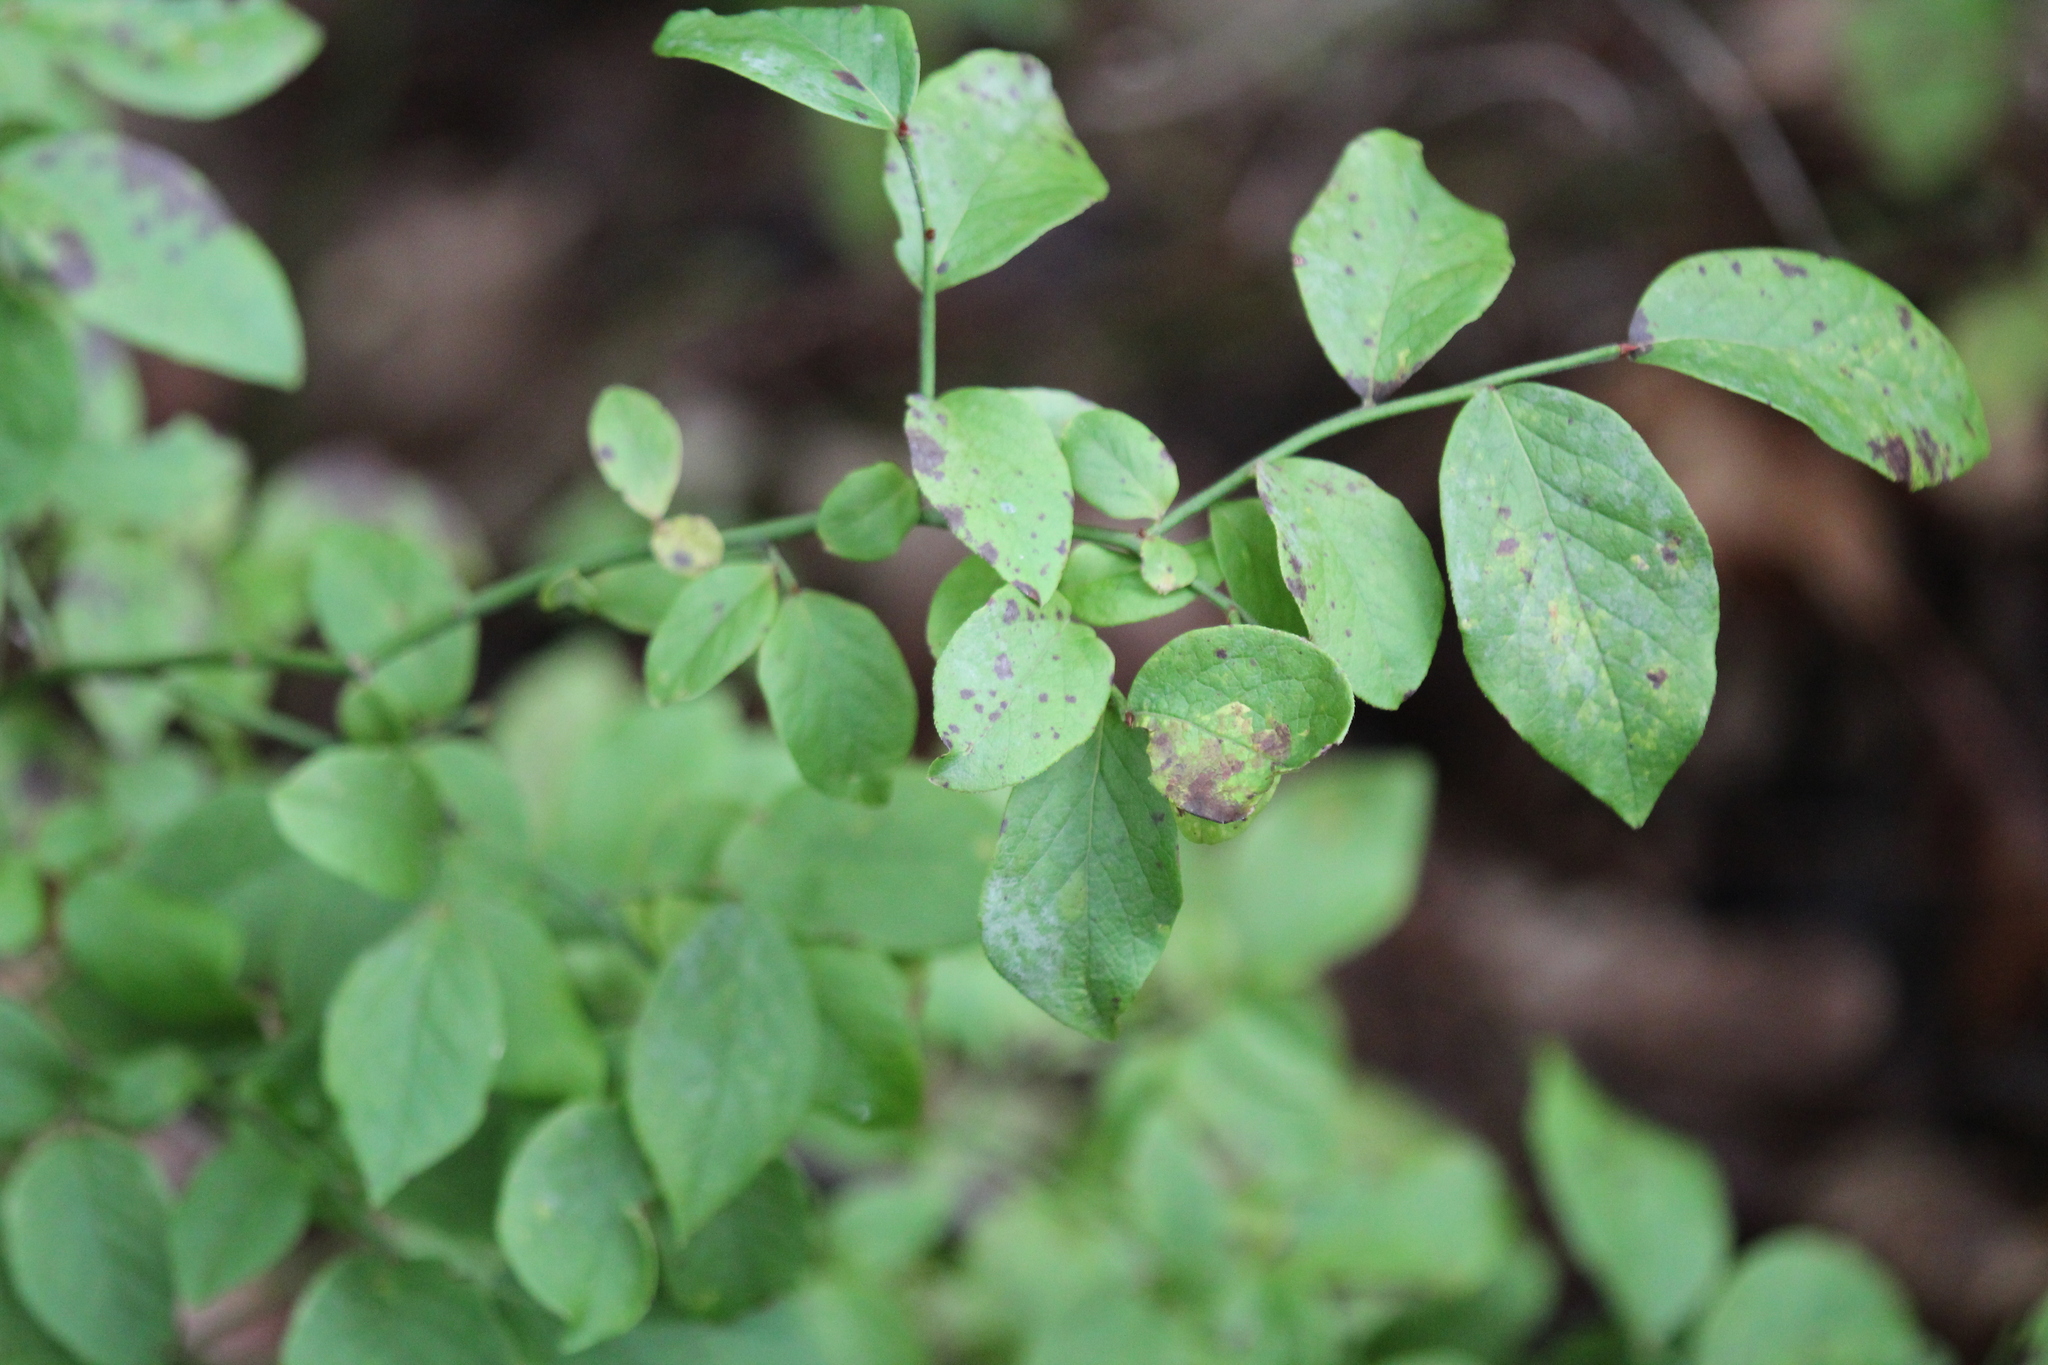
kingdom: Plantae
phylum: Tracheophyta
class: Magnoliopsida
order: Ericales
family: Ericaceae
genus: Vaccinium
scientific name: Vaccinium pallidum
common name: Blue ridge blueberry
